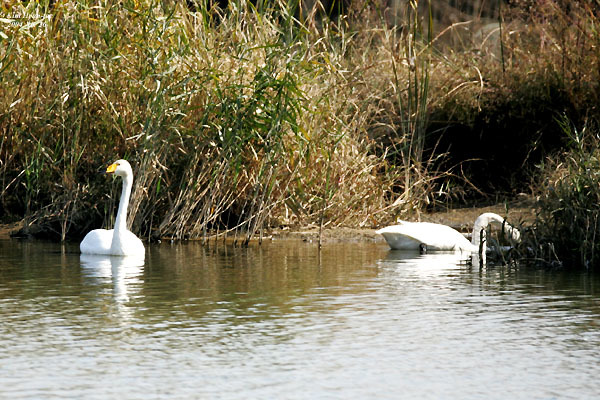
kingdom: Animalia
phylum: Chordata
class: Aves
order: Anseriformes
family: Anatidae
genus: Cygnus
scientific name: Cygnus cygnus
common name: Whooper swan
